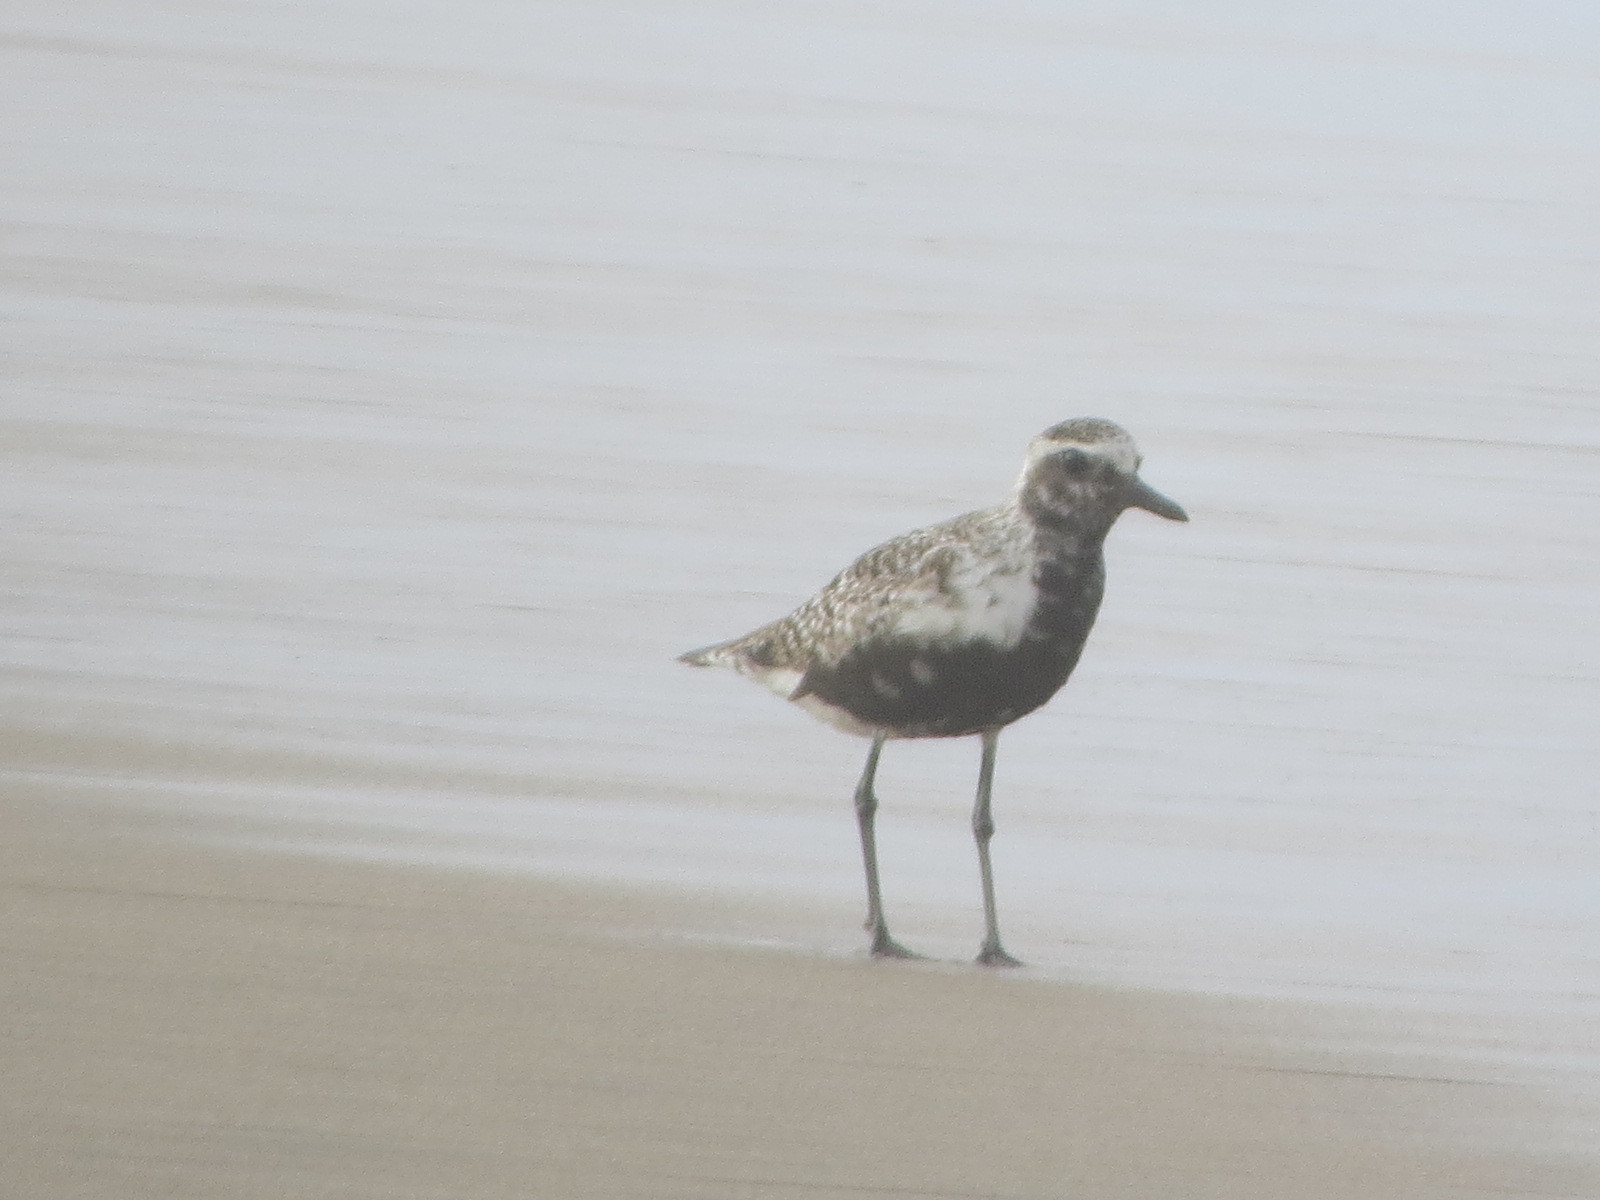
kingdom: Animalia
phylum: Chordata
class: Aves
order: Charadriiformes
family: Charadriidae
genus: Pluvialis
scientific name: Pluvialis squatarola
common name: Grey plover
